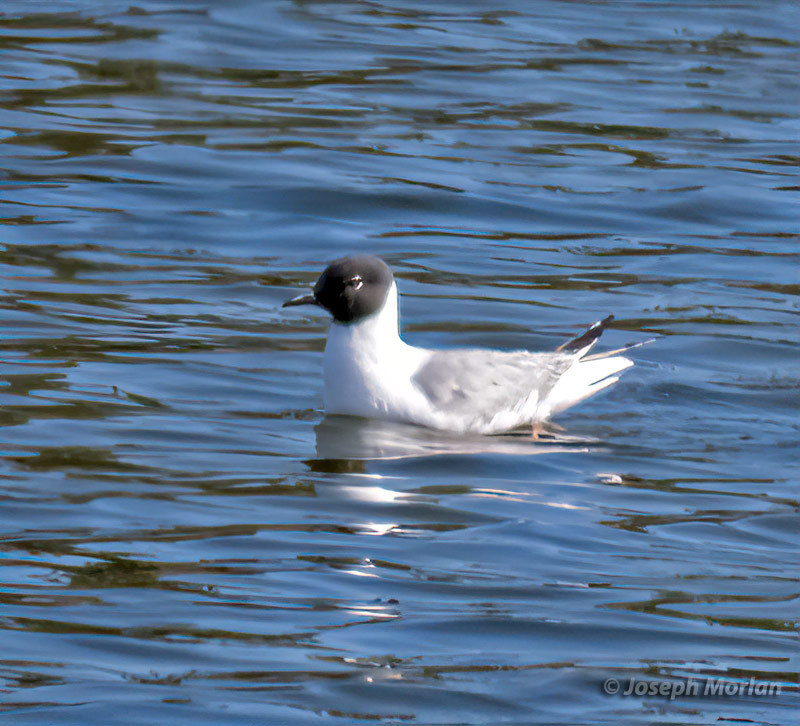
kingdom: Animalia
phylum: Chordata
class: Aves
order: Charadriiformes
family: Laridae
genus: Chroicocephalus
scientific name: Chroicocephalus philadelphia
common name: Bonaparte's gull
